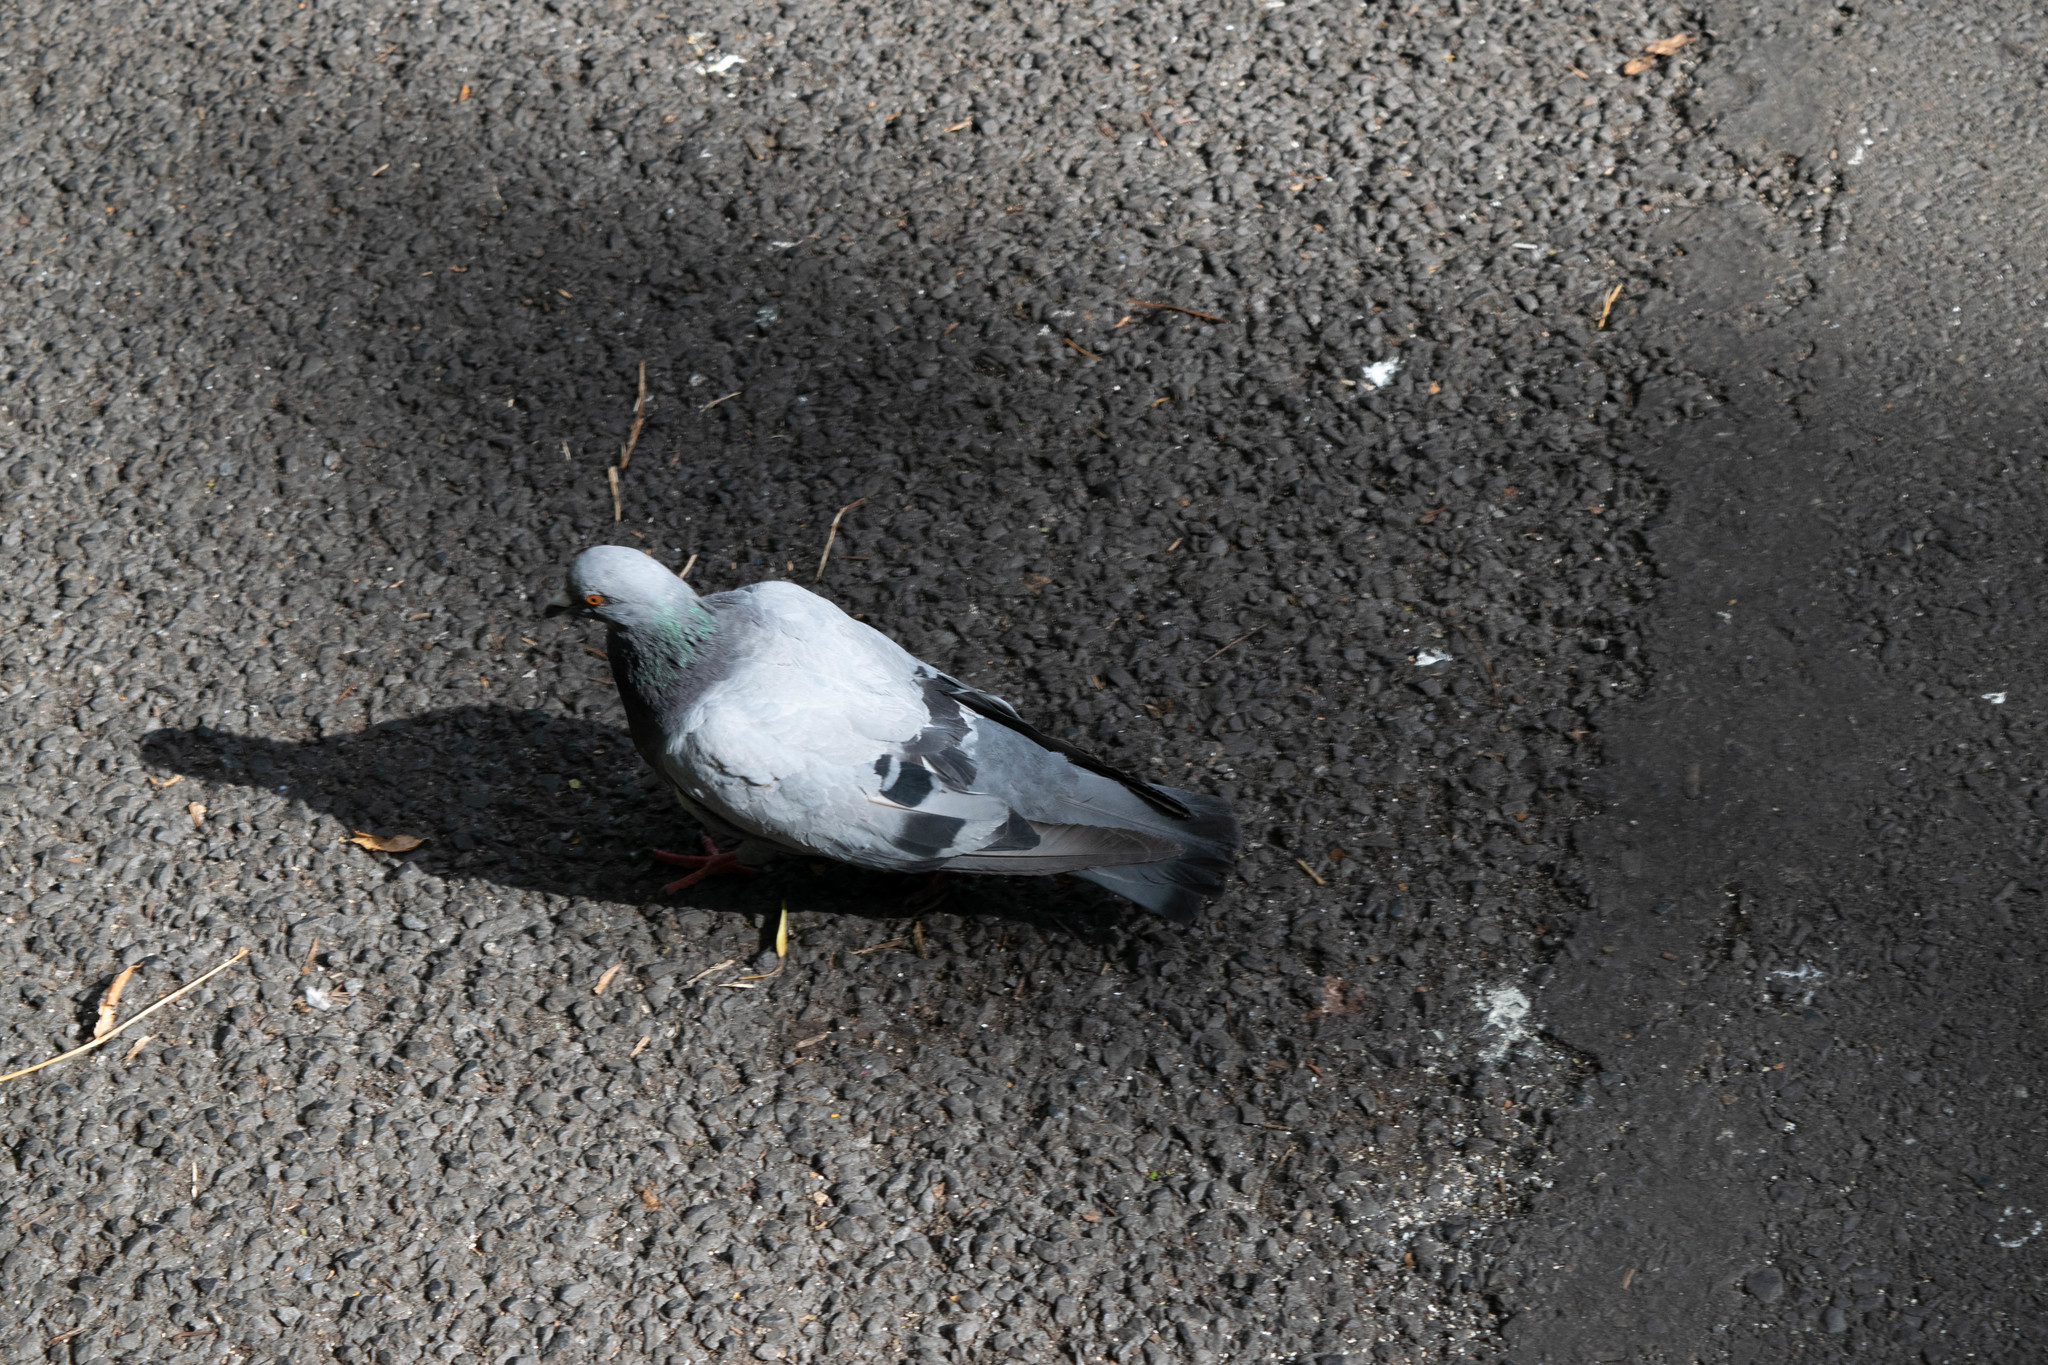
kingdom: Animalia
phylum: Chordata
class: Aves
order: Columbiformes
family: Columbidae
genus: Columba
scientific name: Columba livia
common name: Rock pigeon
